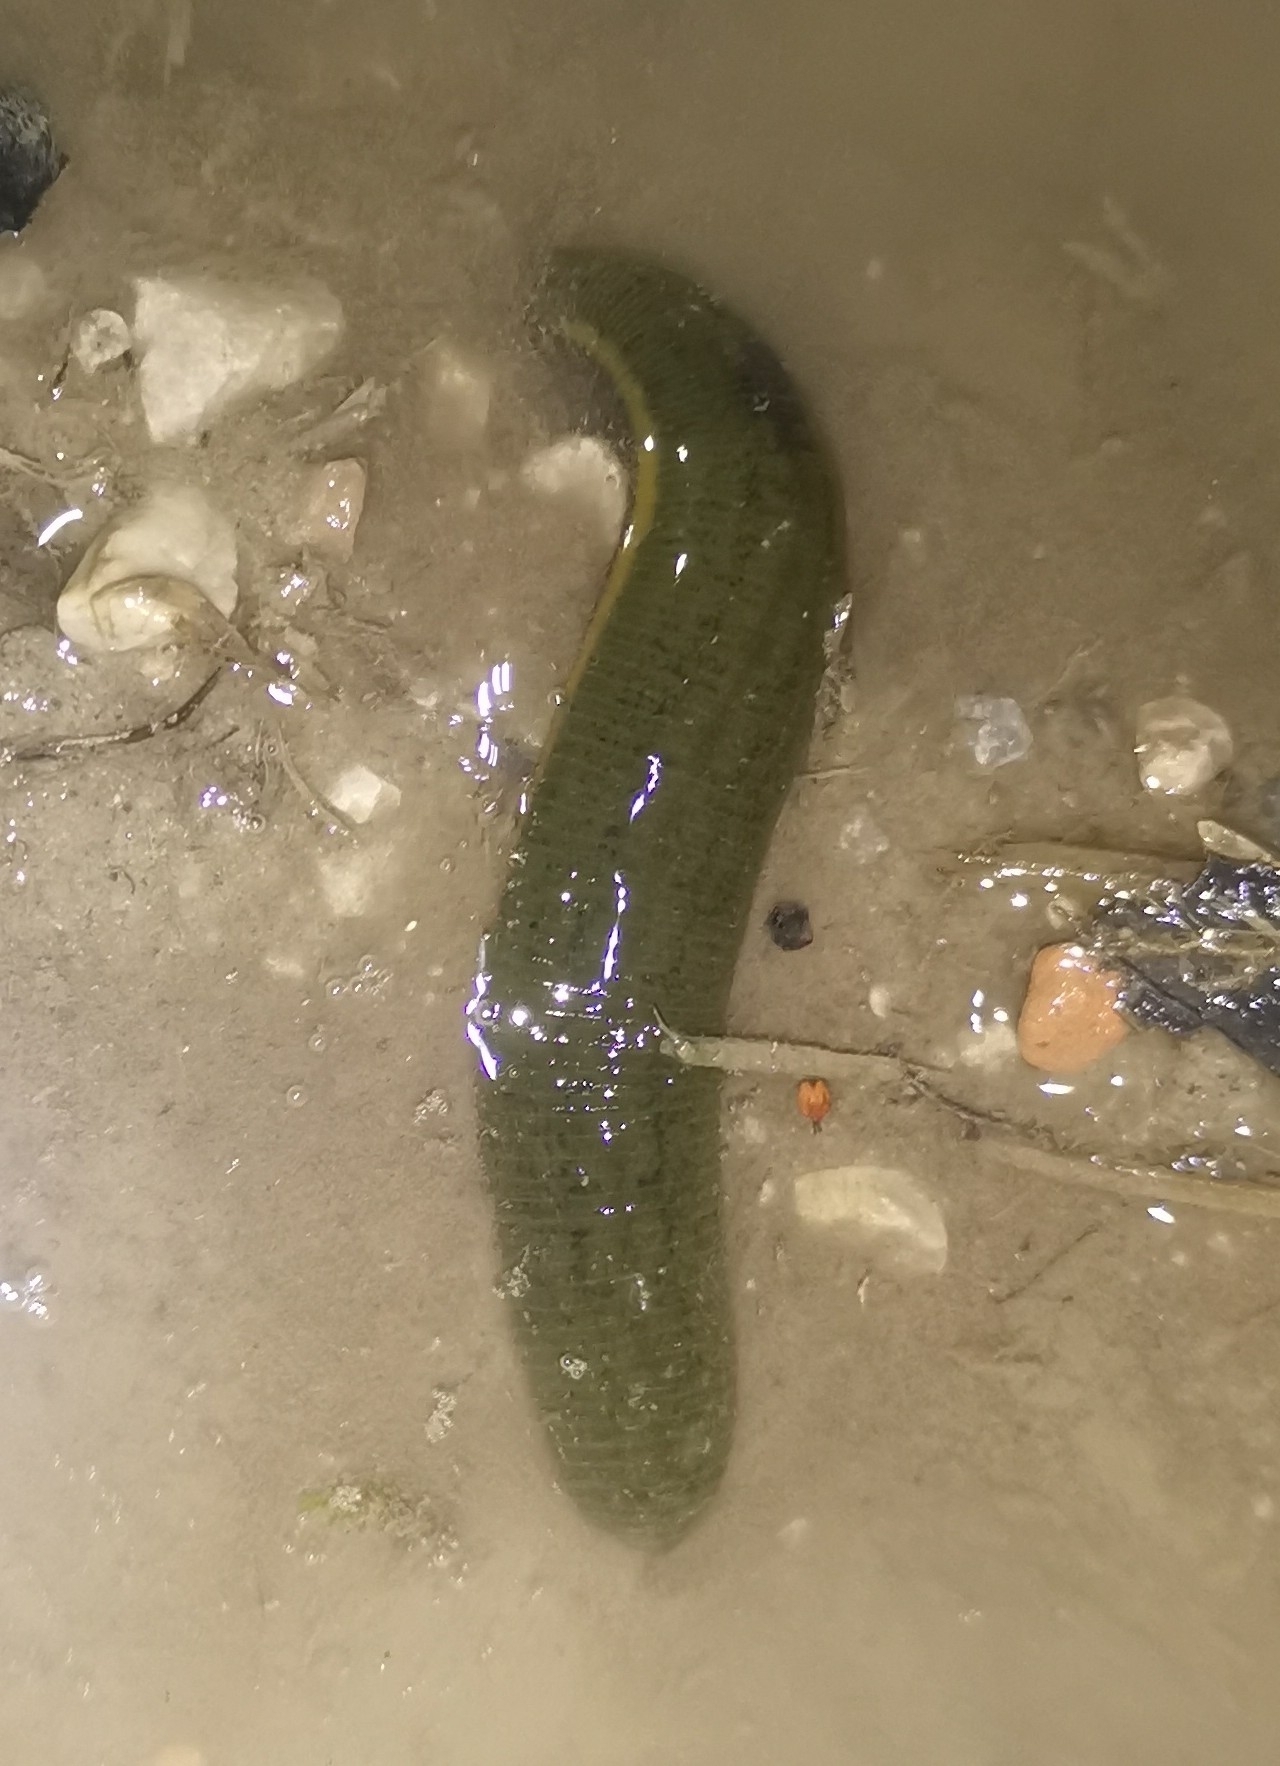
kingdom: Animalia
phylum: Annelida
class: Clitellata
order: Arhynchobdellida
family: Haemopidae
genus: Haemopis
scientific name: Haemopis sanguisuga
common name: Horse leech
